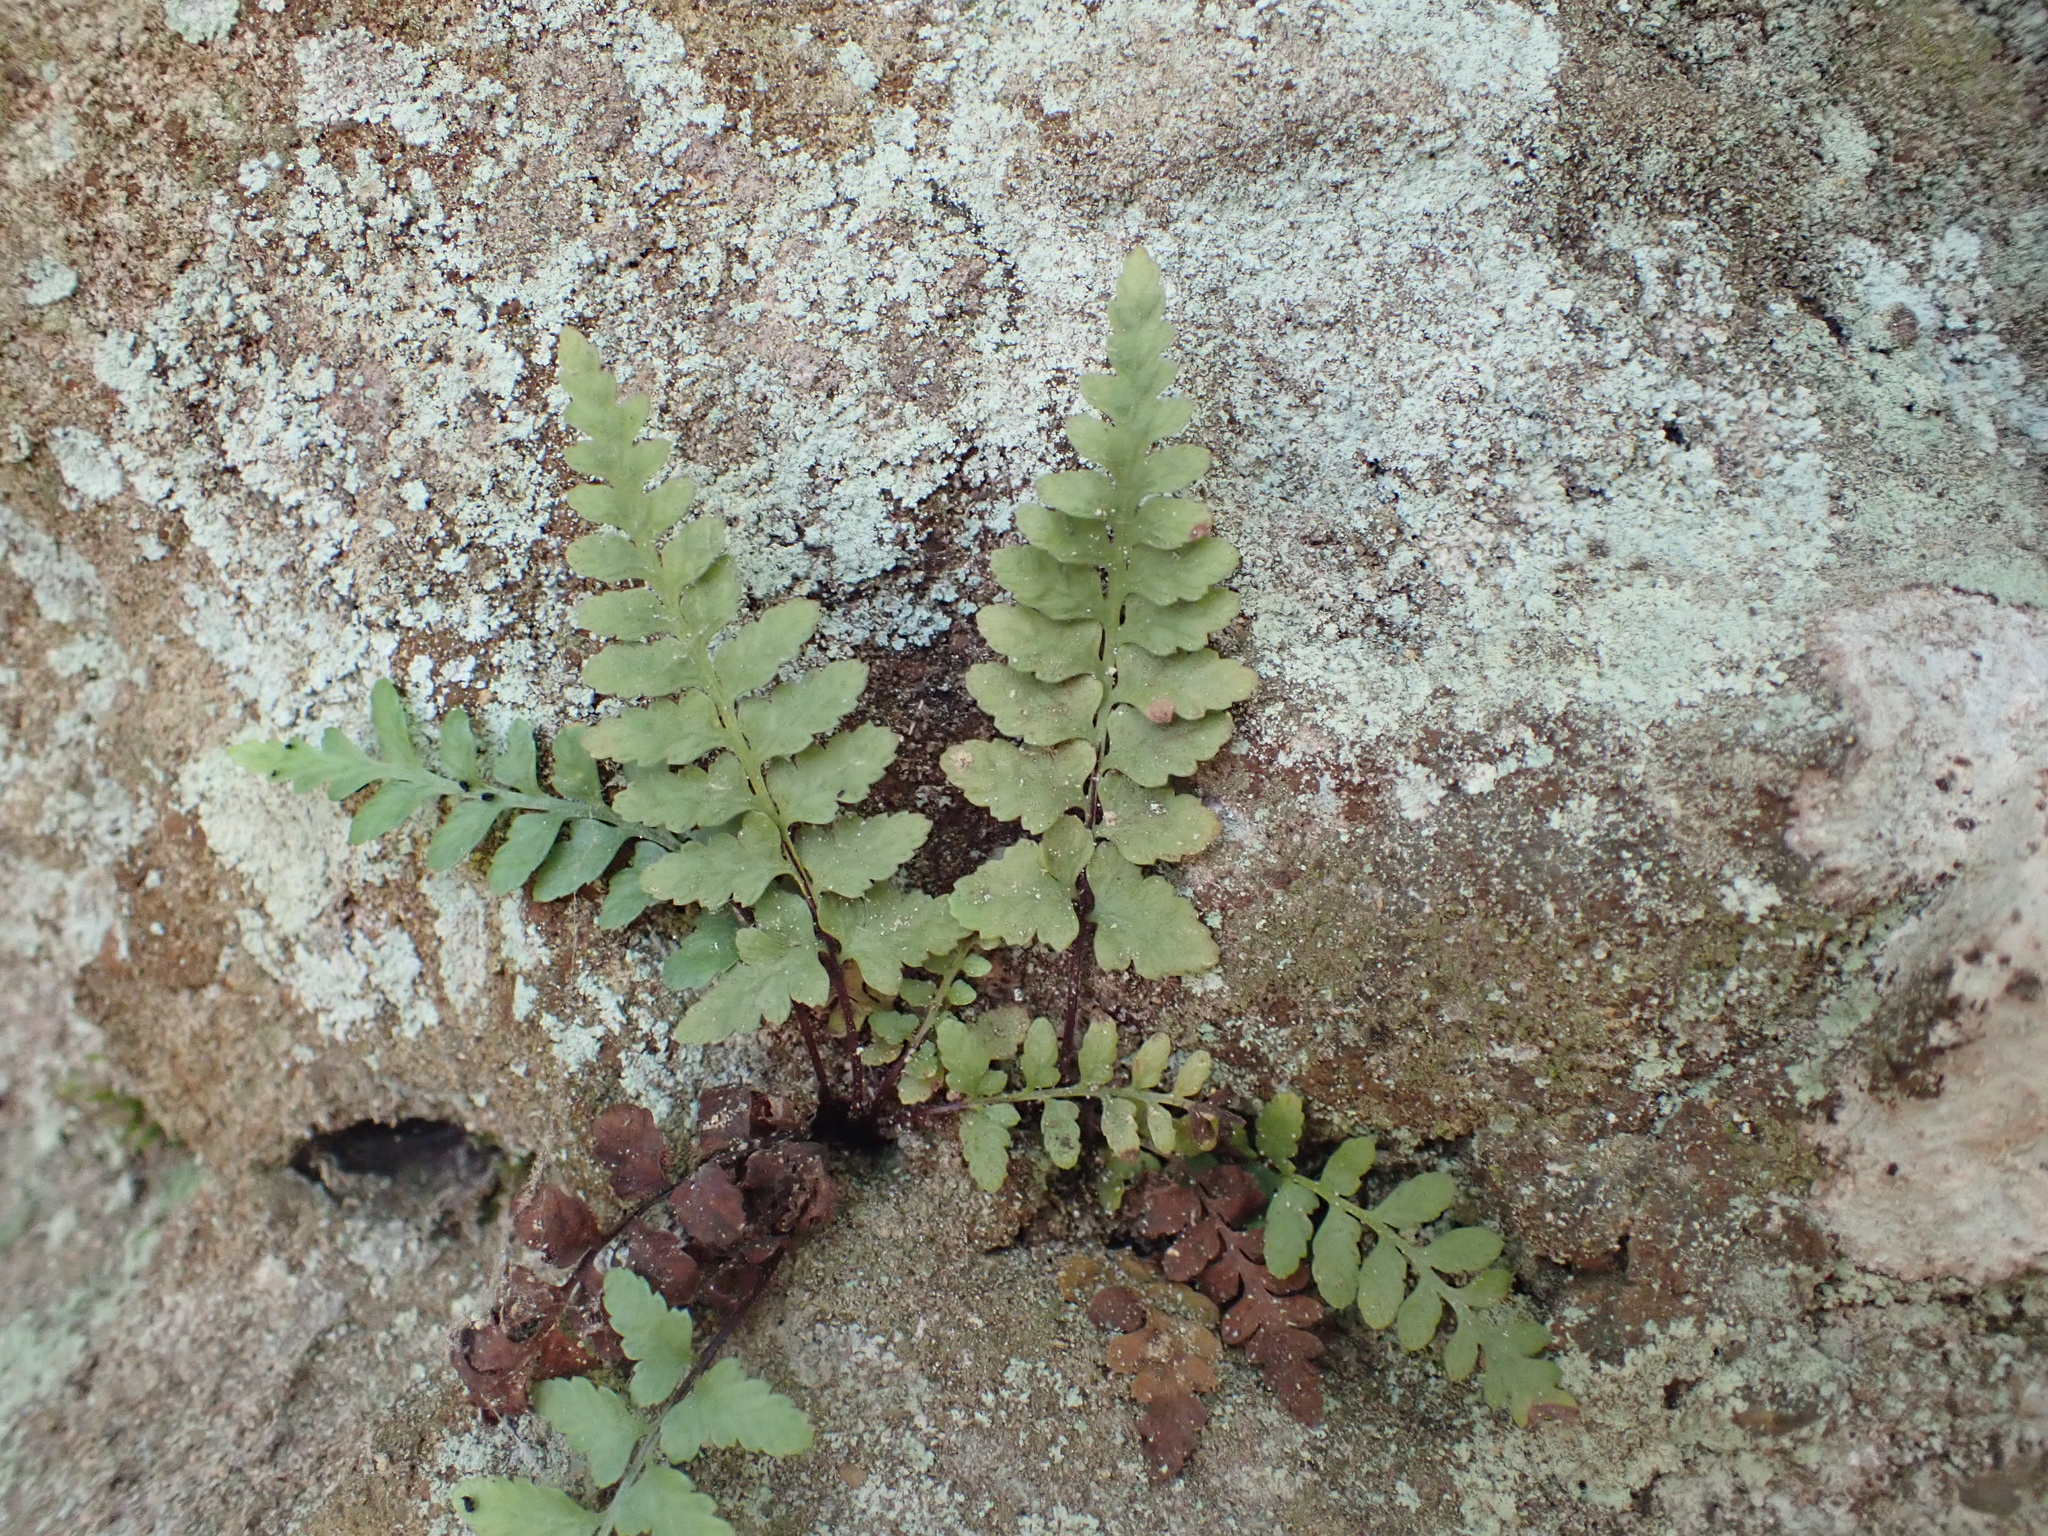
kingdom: Plantae
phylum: Tracheophyta
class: Polypodiopsida
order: Polypodiales
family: Aspleniaceae
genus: Asplenium
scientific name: Asplenium bradleyi
